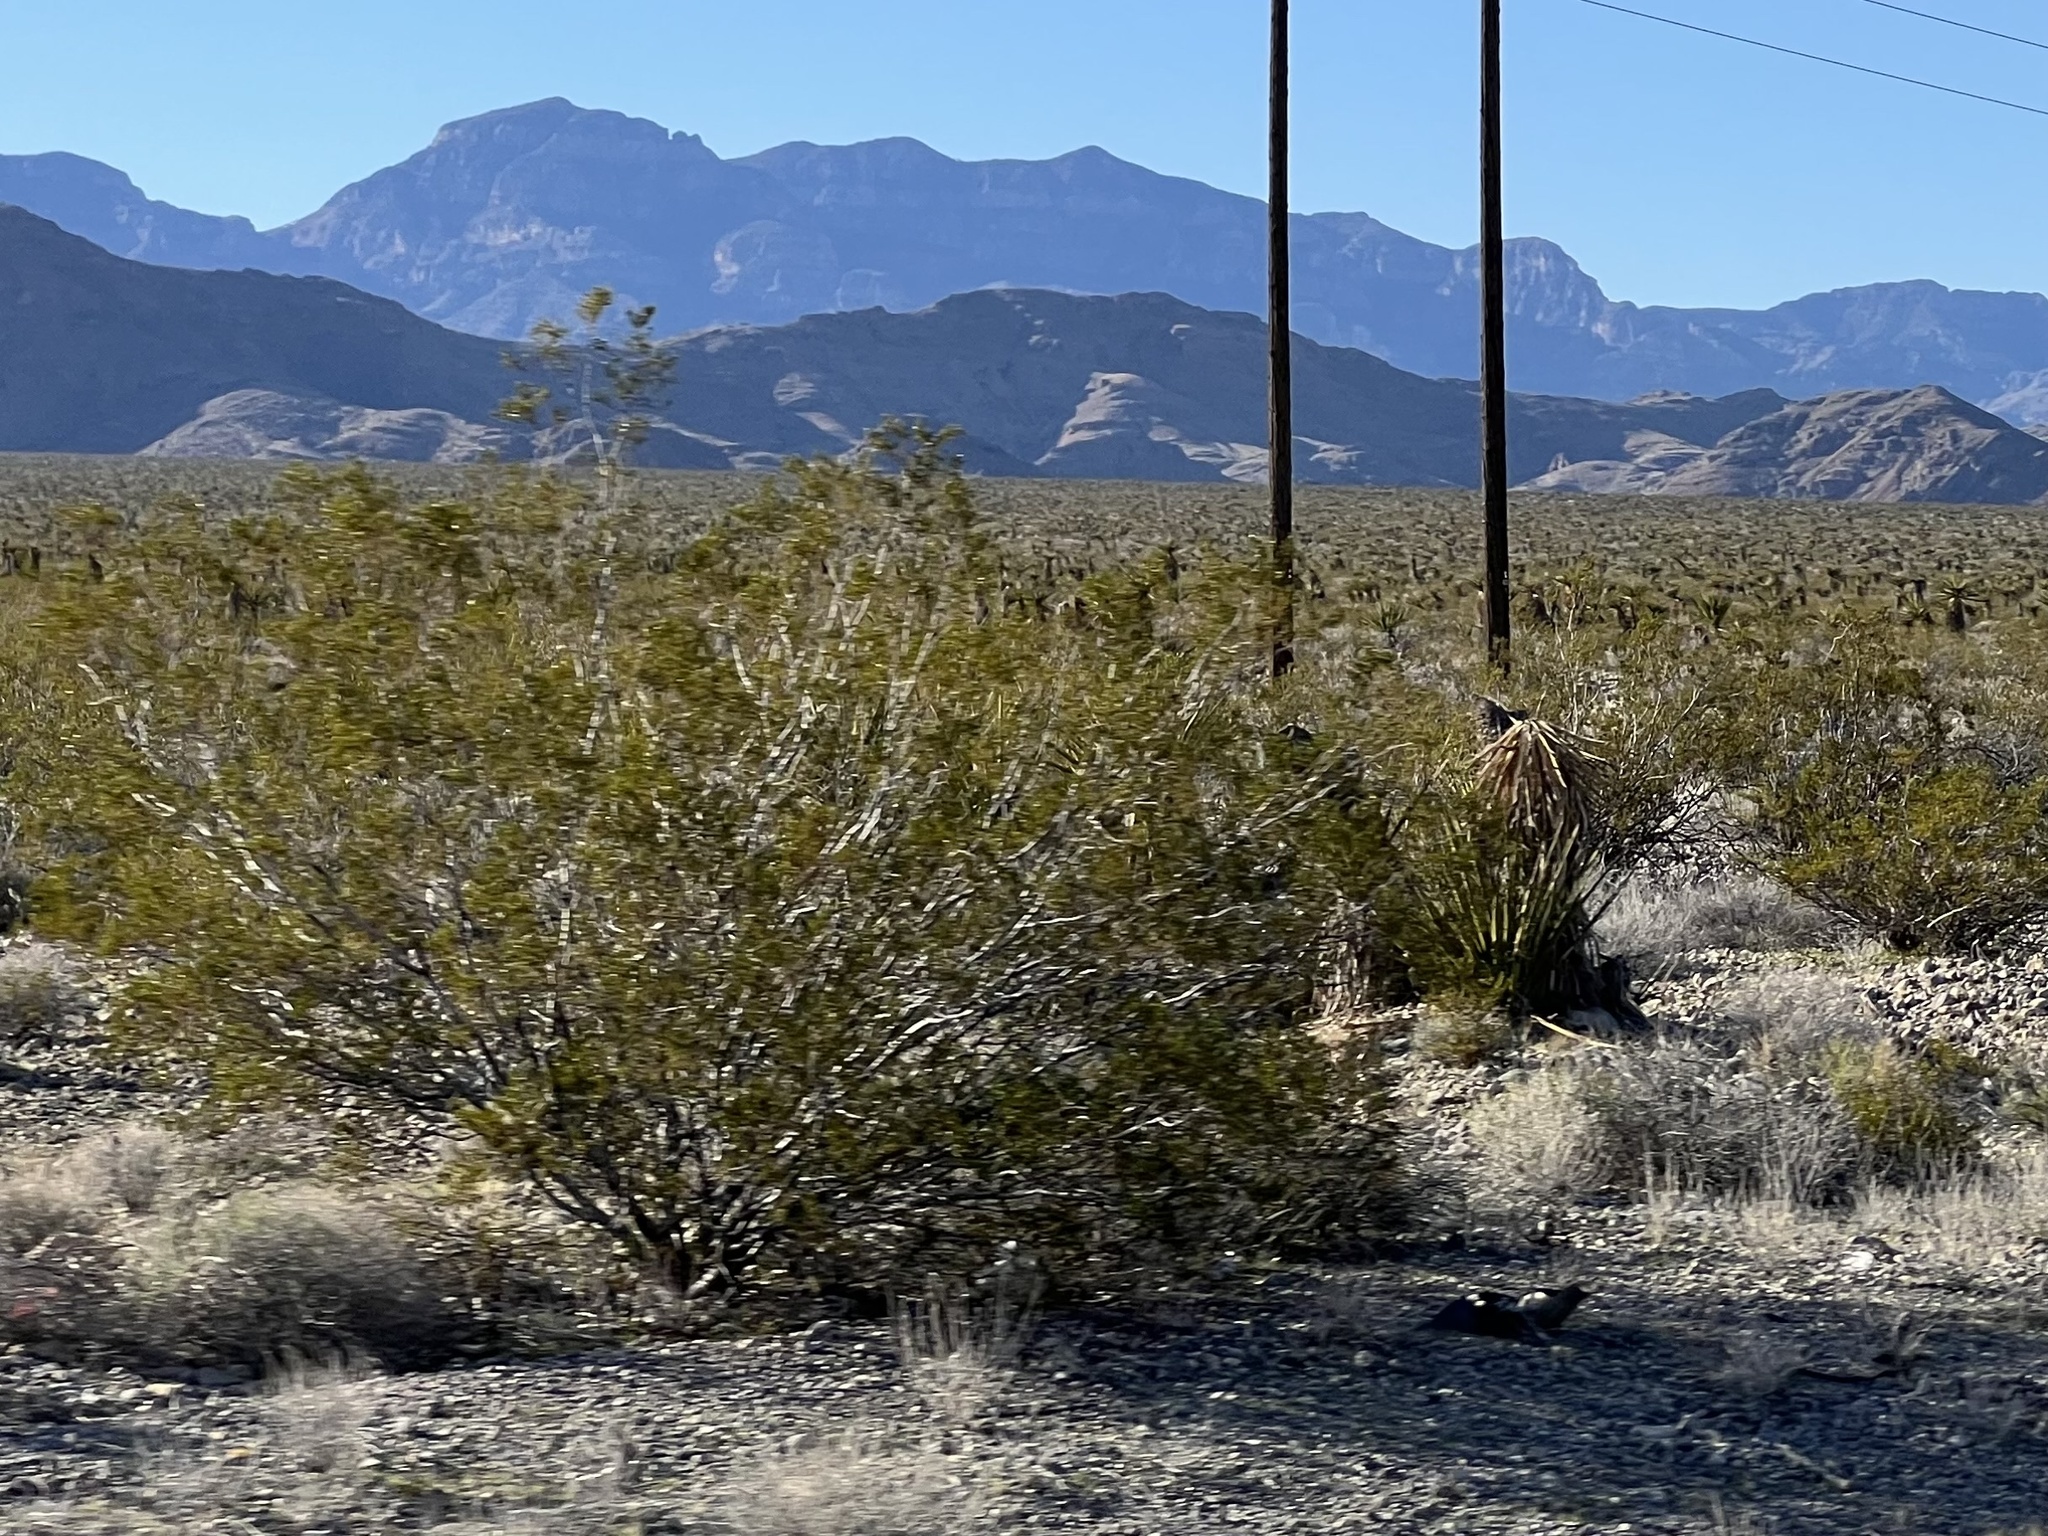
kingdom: Plantae
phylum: Tracheophyta
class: Magnoliopsida
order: Zygophyllales
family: Zygophyllaceae
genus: Larrea
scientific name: Larrea tridentata
